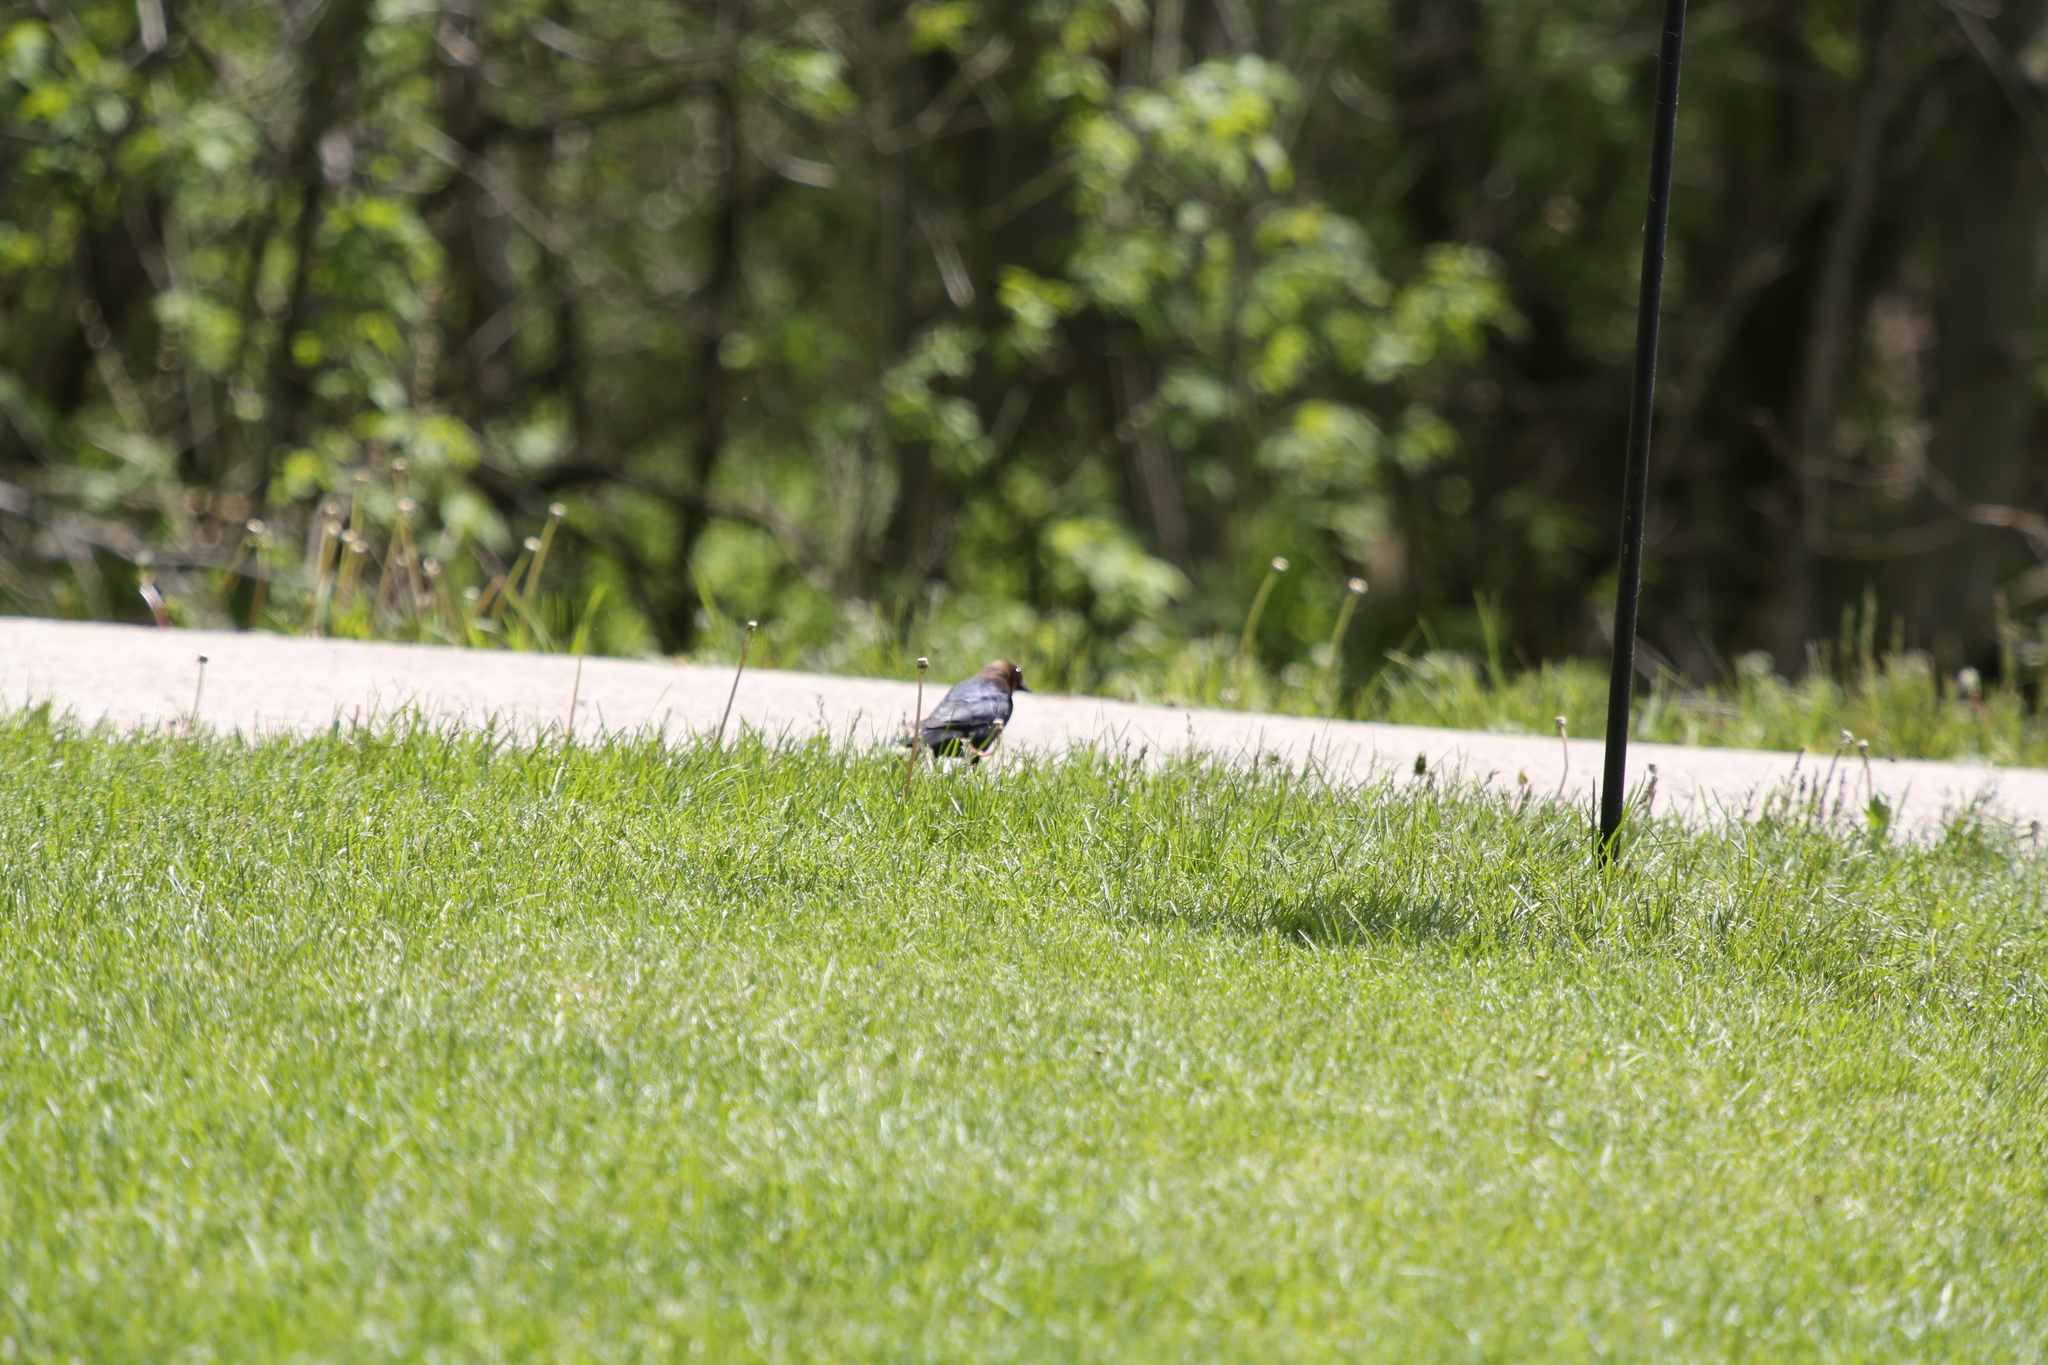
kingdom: Animalia
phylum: Chordata
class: Aves
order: Passeriformes
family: Icteridae
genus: Molothrus
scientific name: Molothrus ater
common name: Brown-headed cowbird
